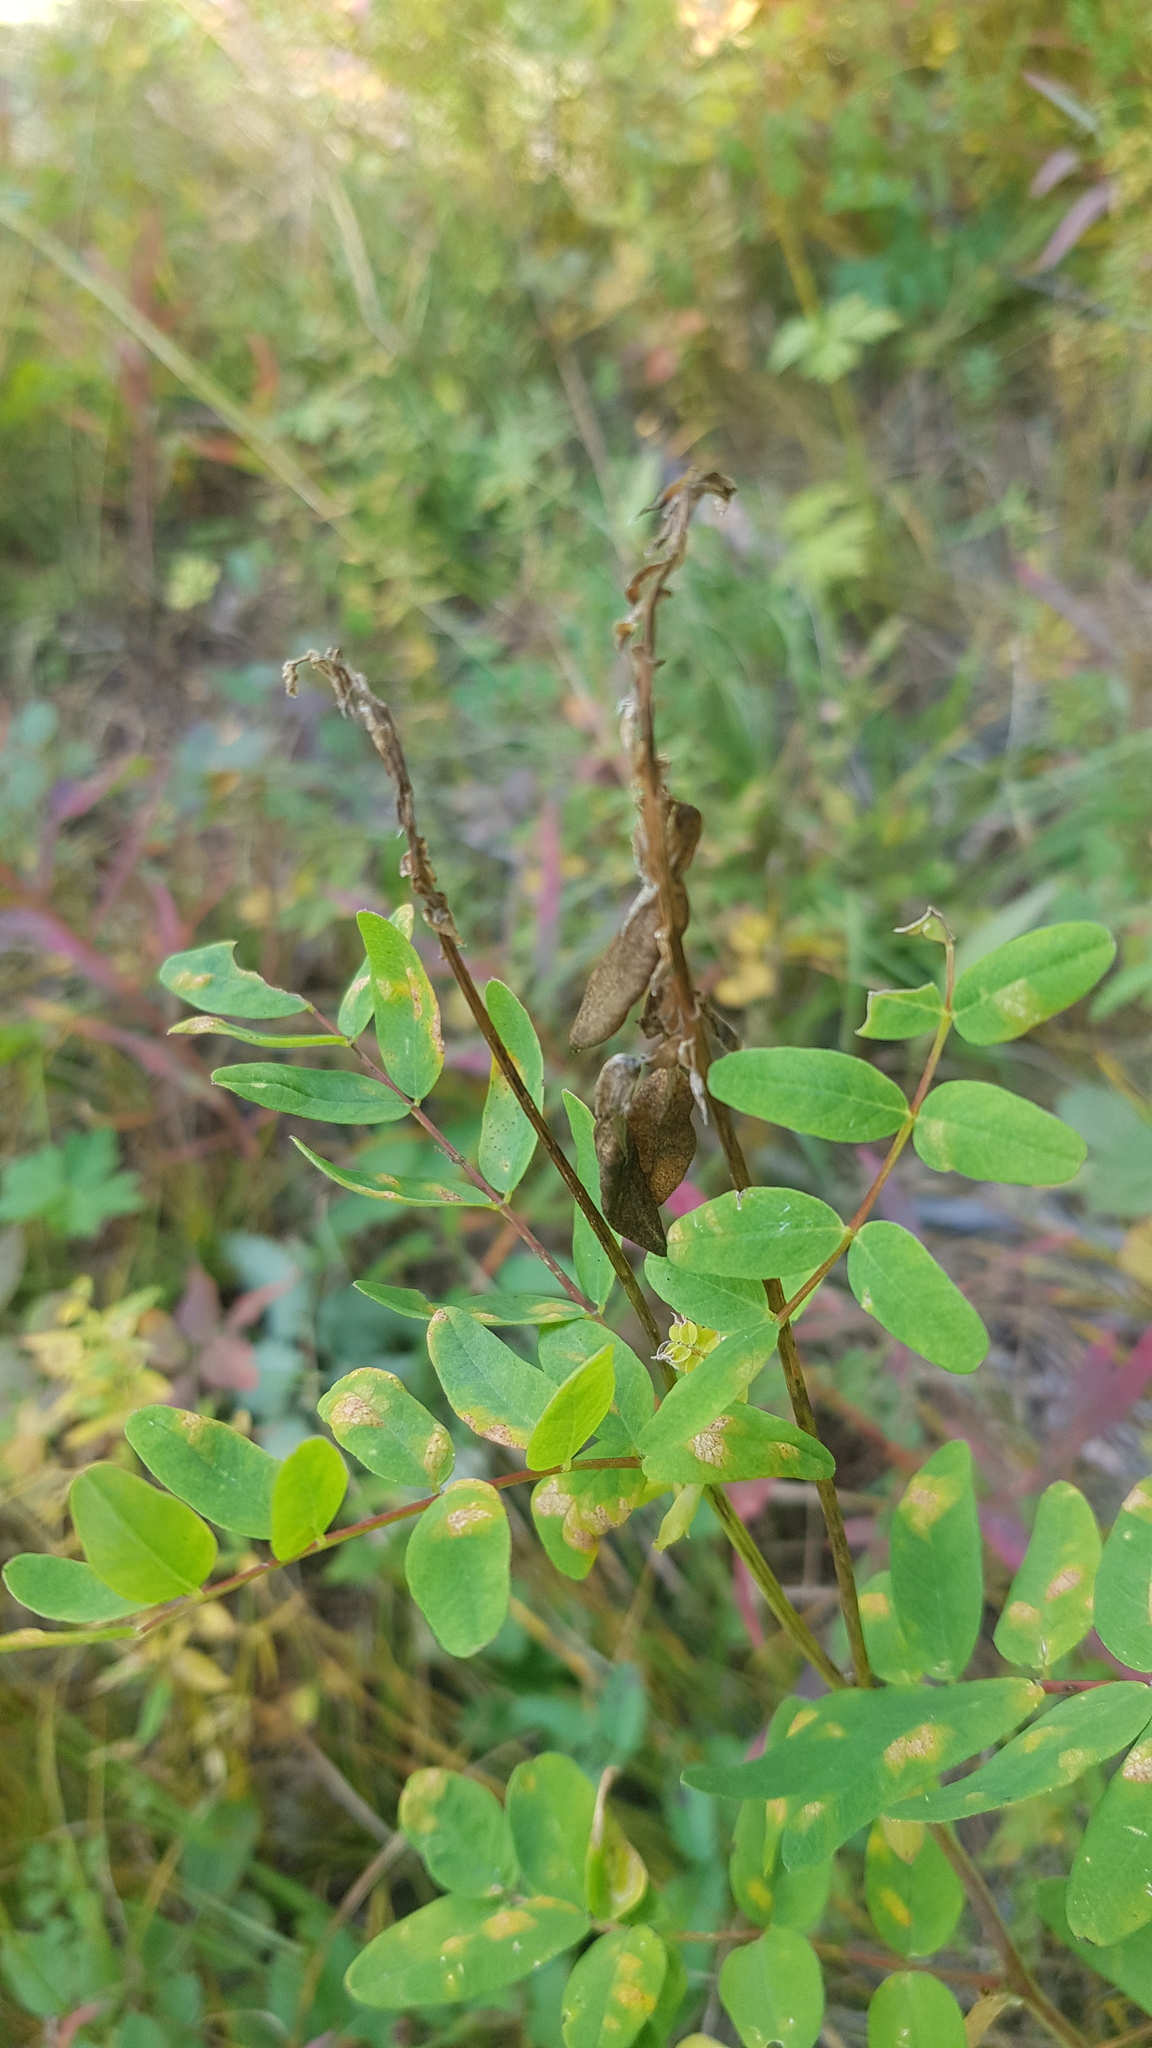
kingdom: Plantae
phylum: Tracheophyta
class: Magnoliopsida
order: Fabales
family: Fabaceae
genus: Astragalus
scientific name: Astragalus frigidus
